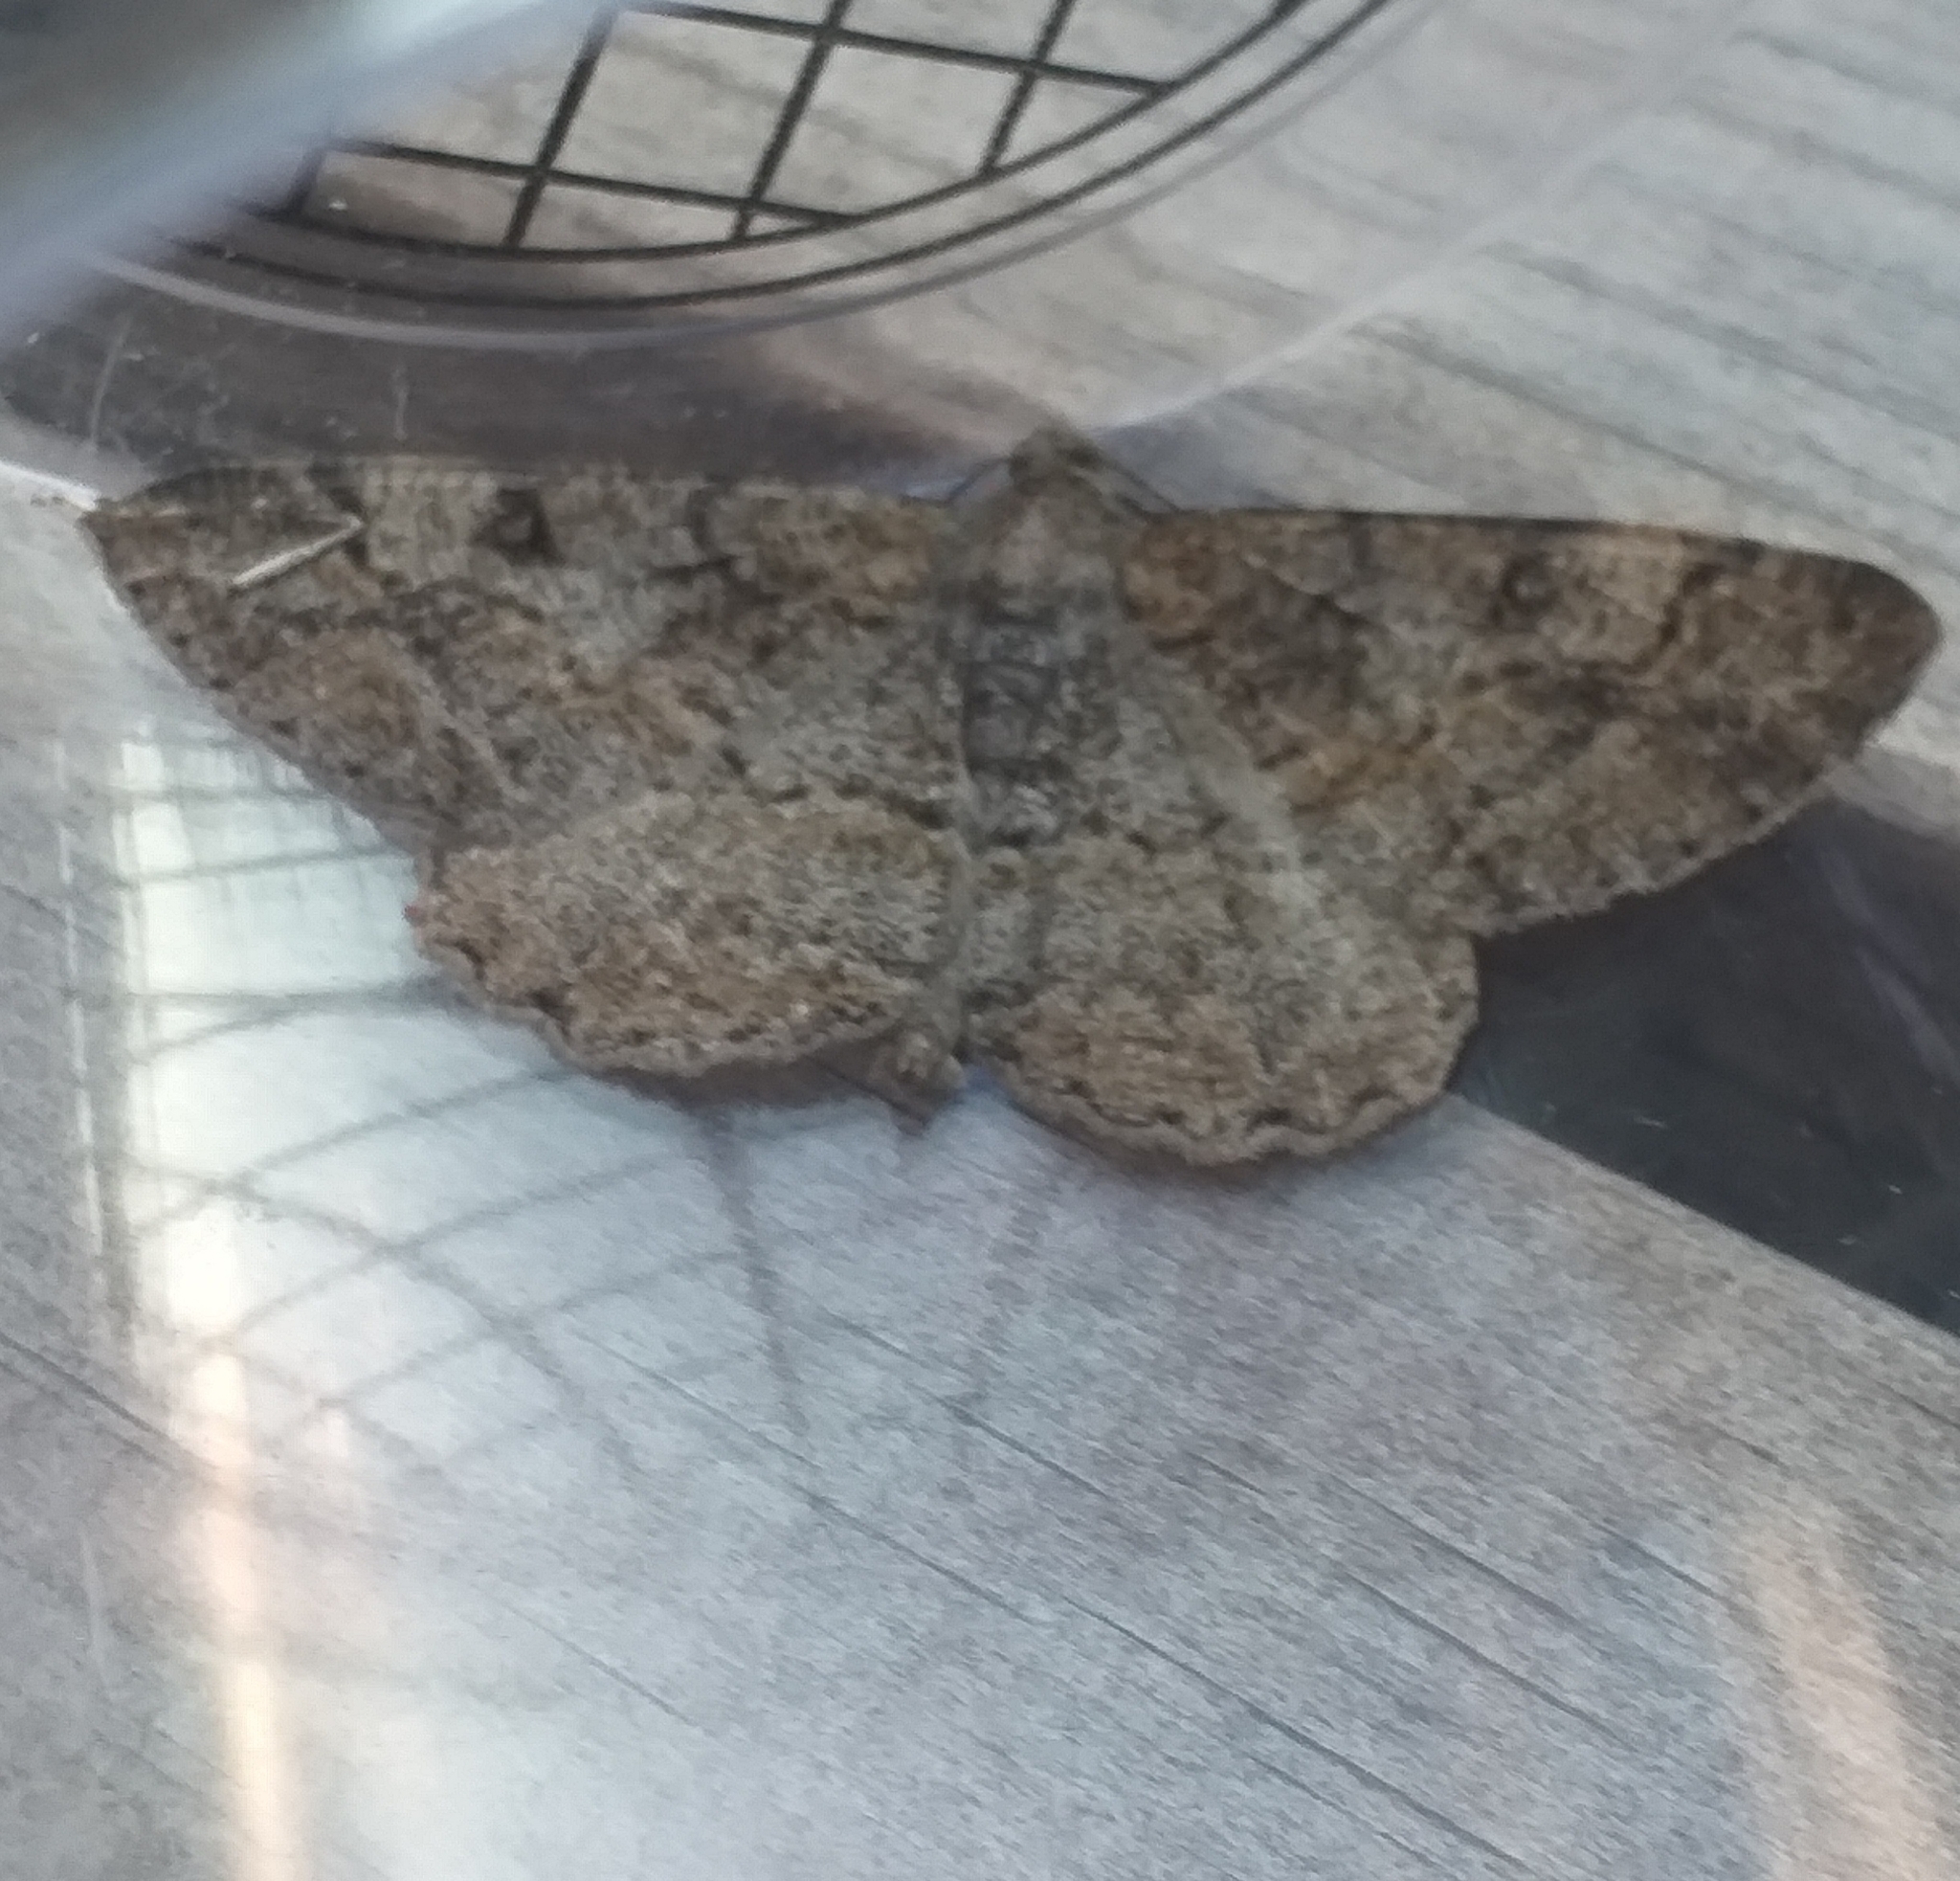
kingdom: Animalia
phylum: Arthropoda
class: Insecta
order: Lepidoptera
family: Geometridae
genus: Alcis
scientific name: Alcis repandata
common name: Mottled beauty
